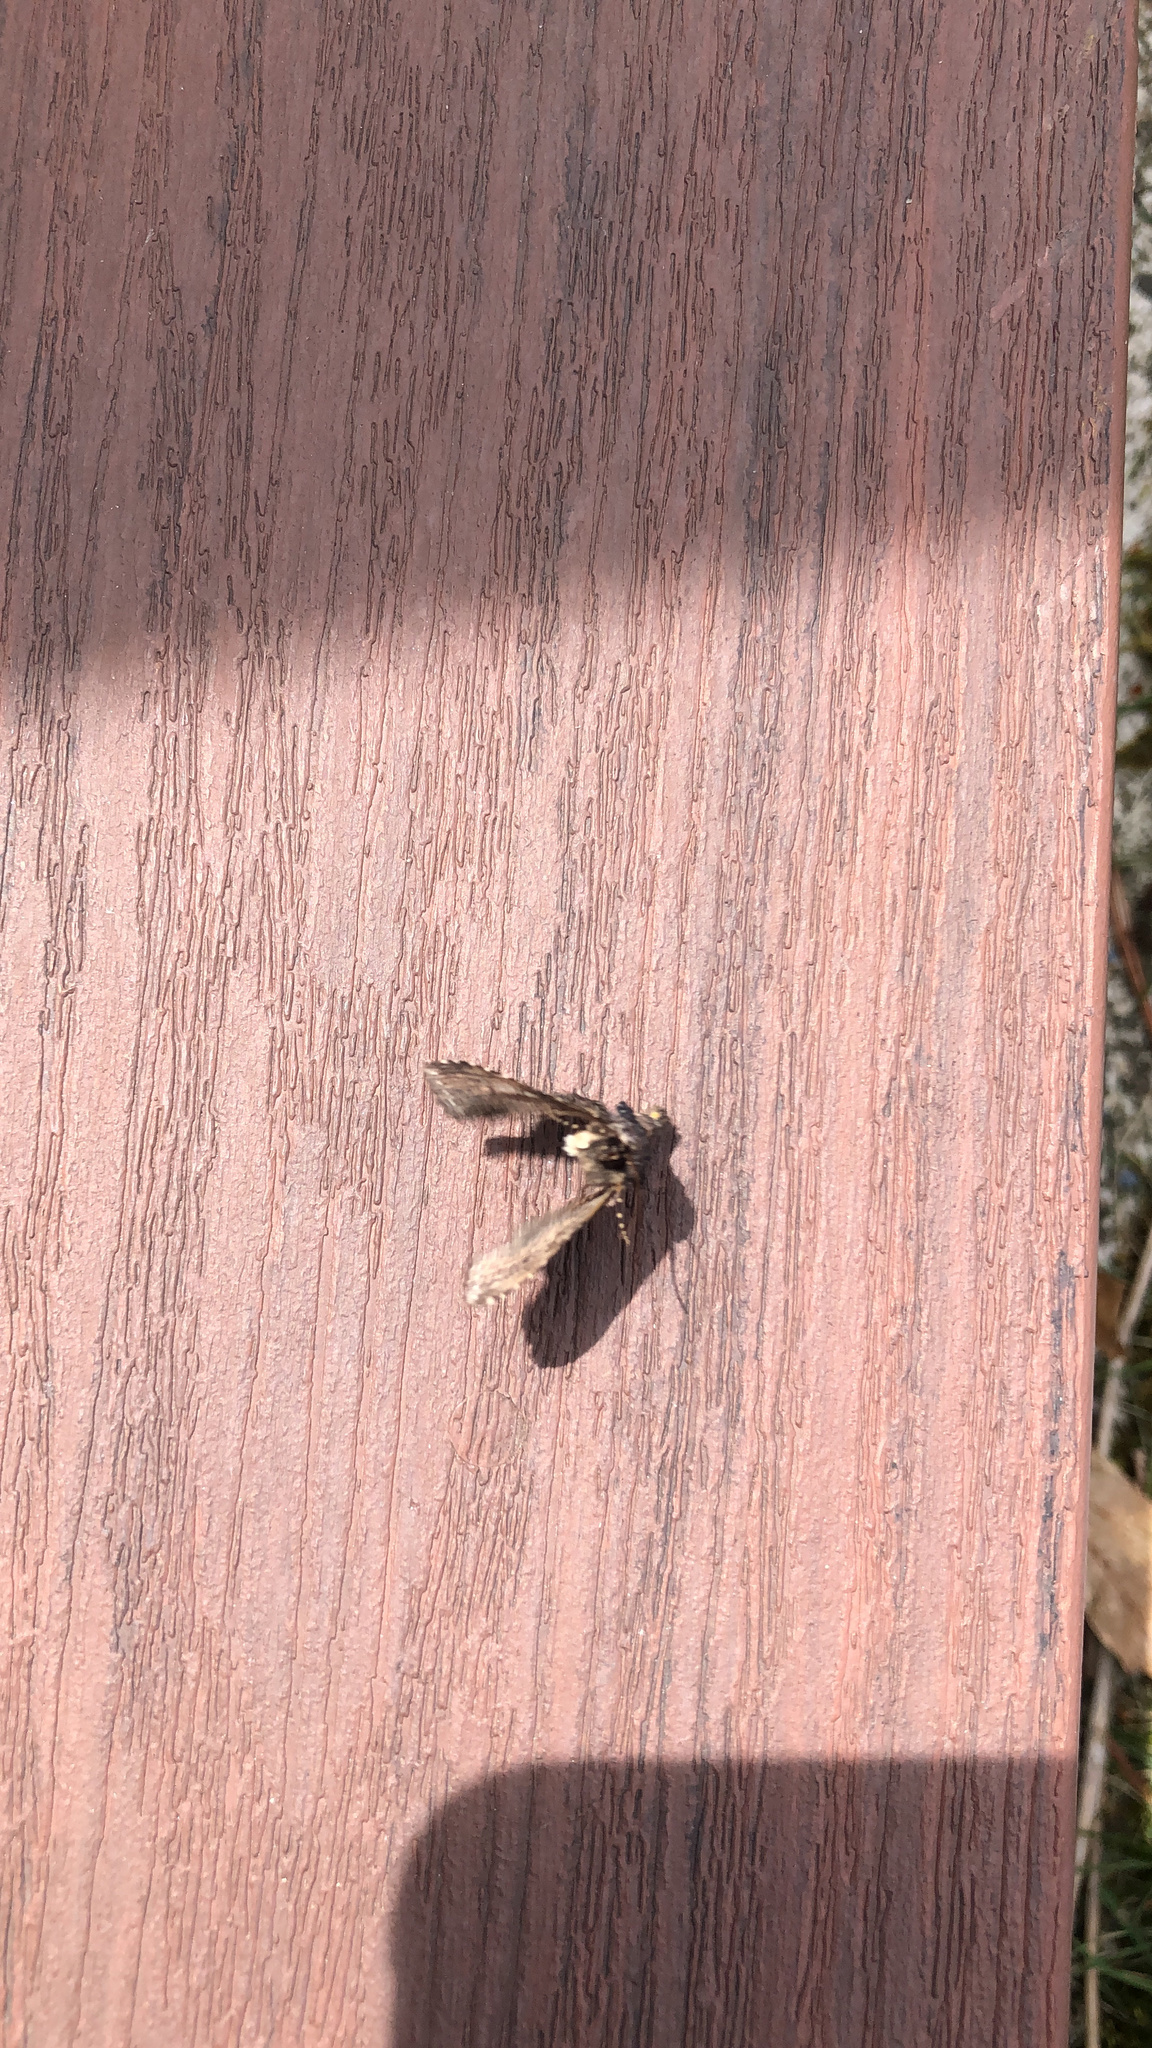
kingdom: Animalia
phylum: Arthropoda
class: Insecta
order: Lepidoptera
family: Erebidae
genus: Zale
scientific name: Zale aeruginosa
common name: Green-dusted zale moth
